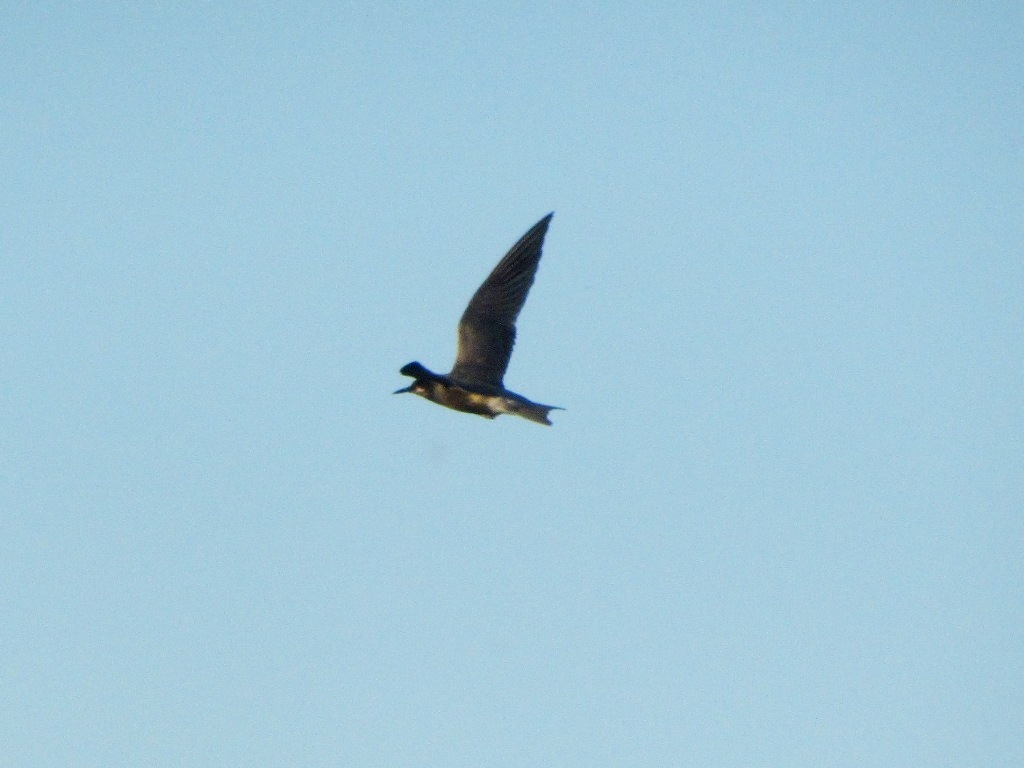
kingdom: Animalia
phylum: Chordata
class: Aves
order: Charadriiformes
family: Laridae
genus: Chlidonias
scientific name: Chlidonias niger
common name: Black tern
